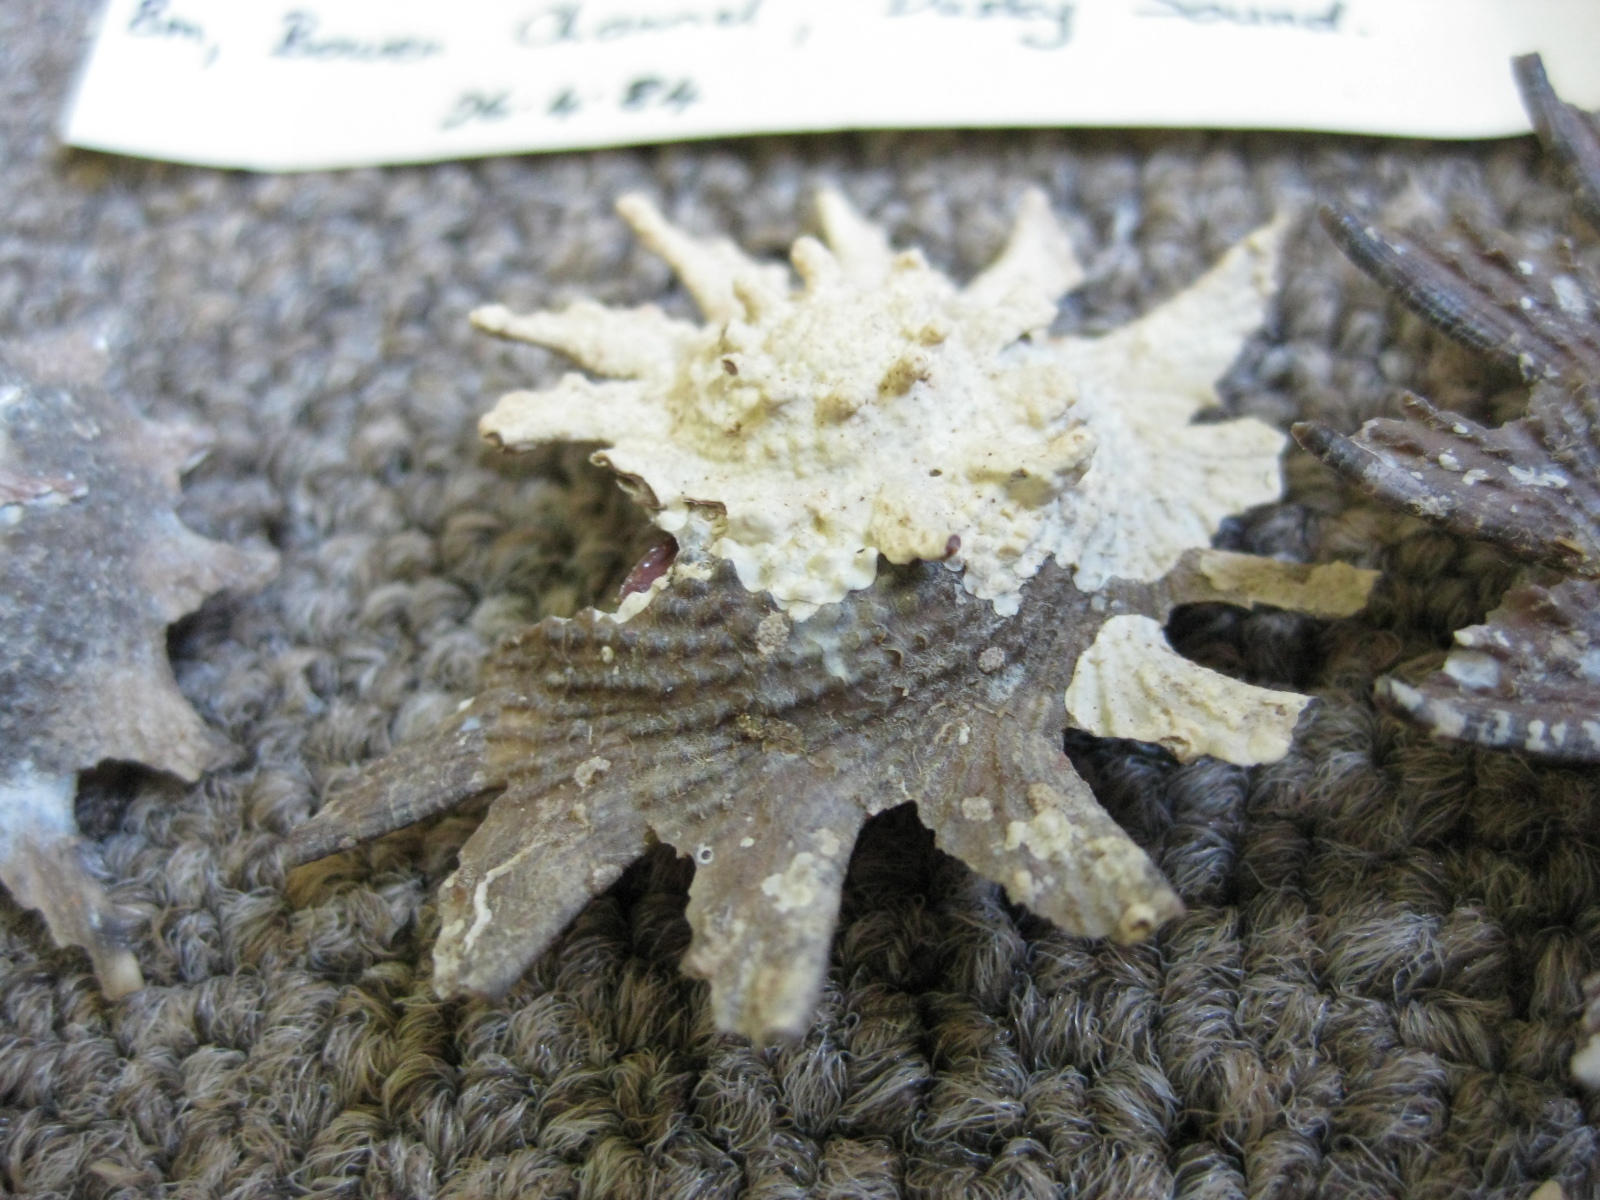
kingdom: Animalia
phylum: Mollusca
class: Gastropoda
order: Trochida
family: Turbinidae
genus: Astraea
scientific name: Astraea heliotropium
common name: Sun shell
